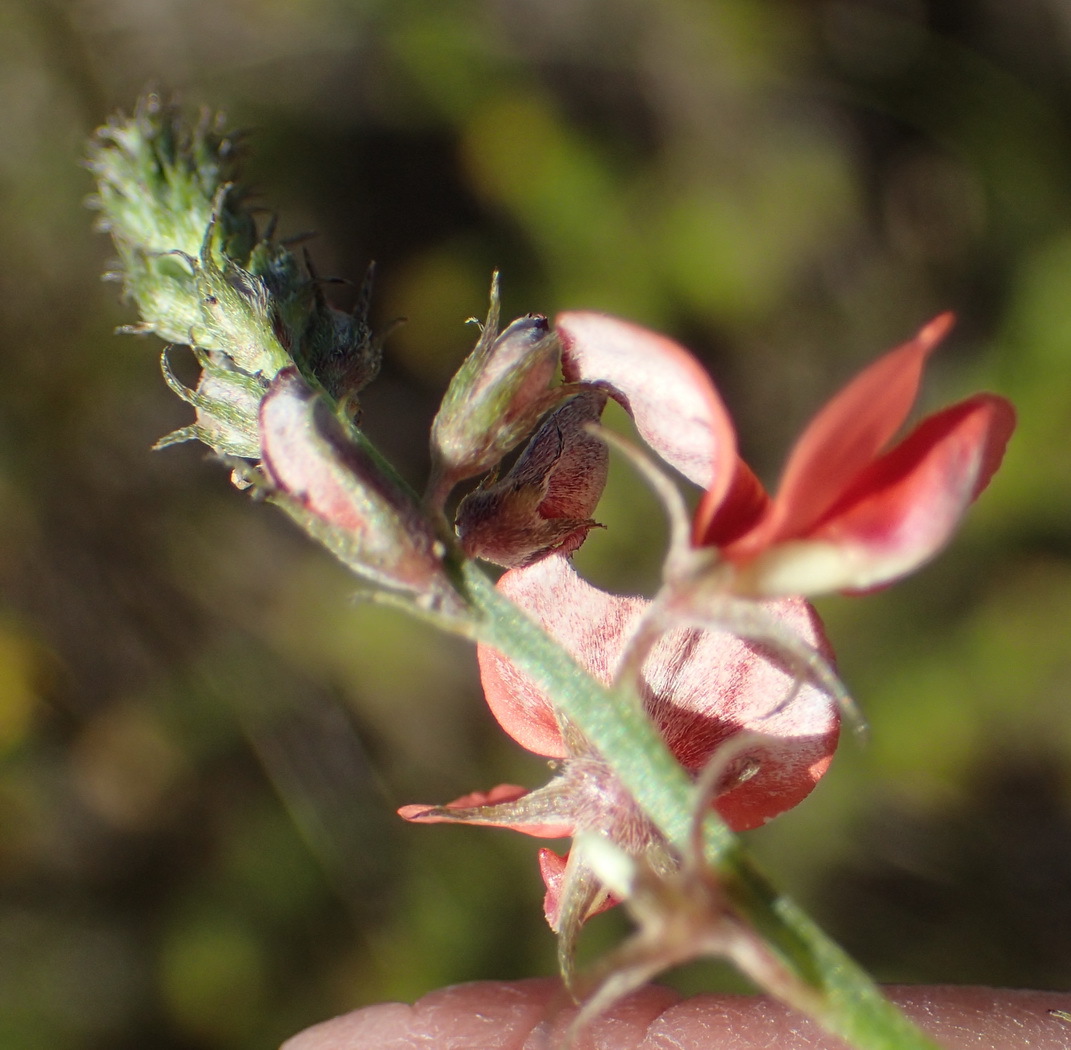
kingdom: Plantae
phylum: Tracheophyta
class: Magnoliopsida
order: Fabales
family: Fabaceae
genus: Indigofera
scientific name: Indigofera priorii
